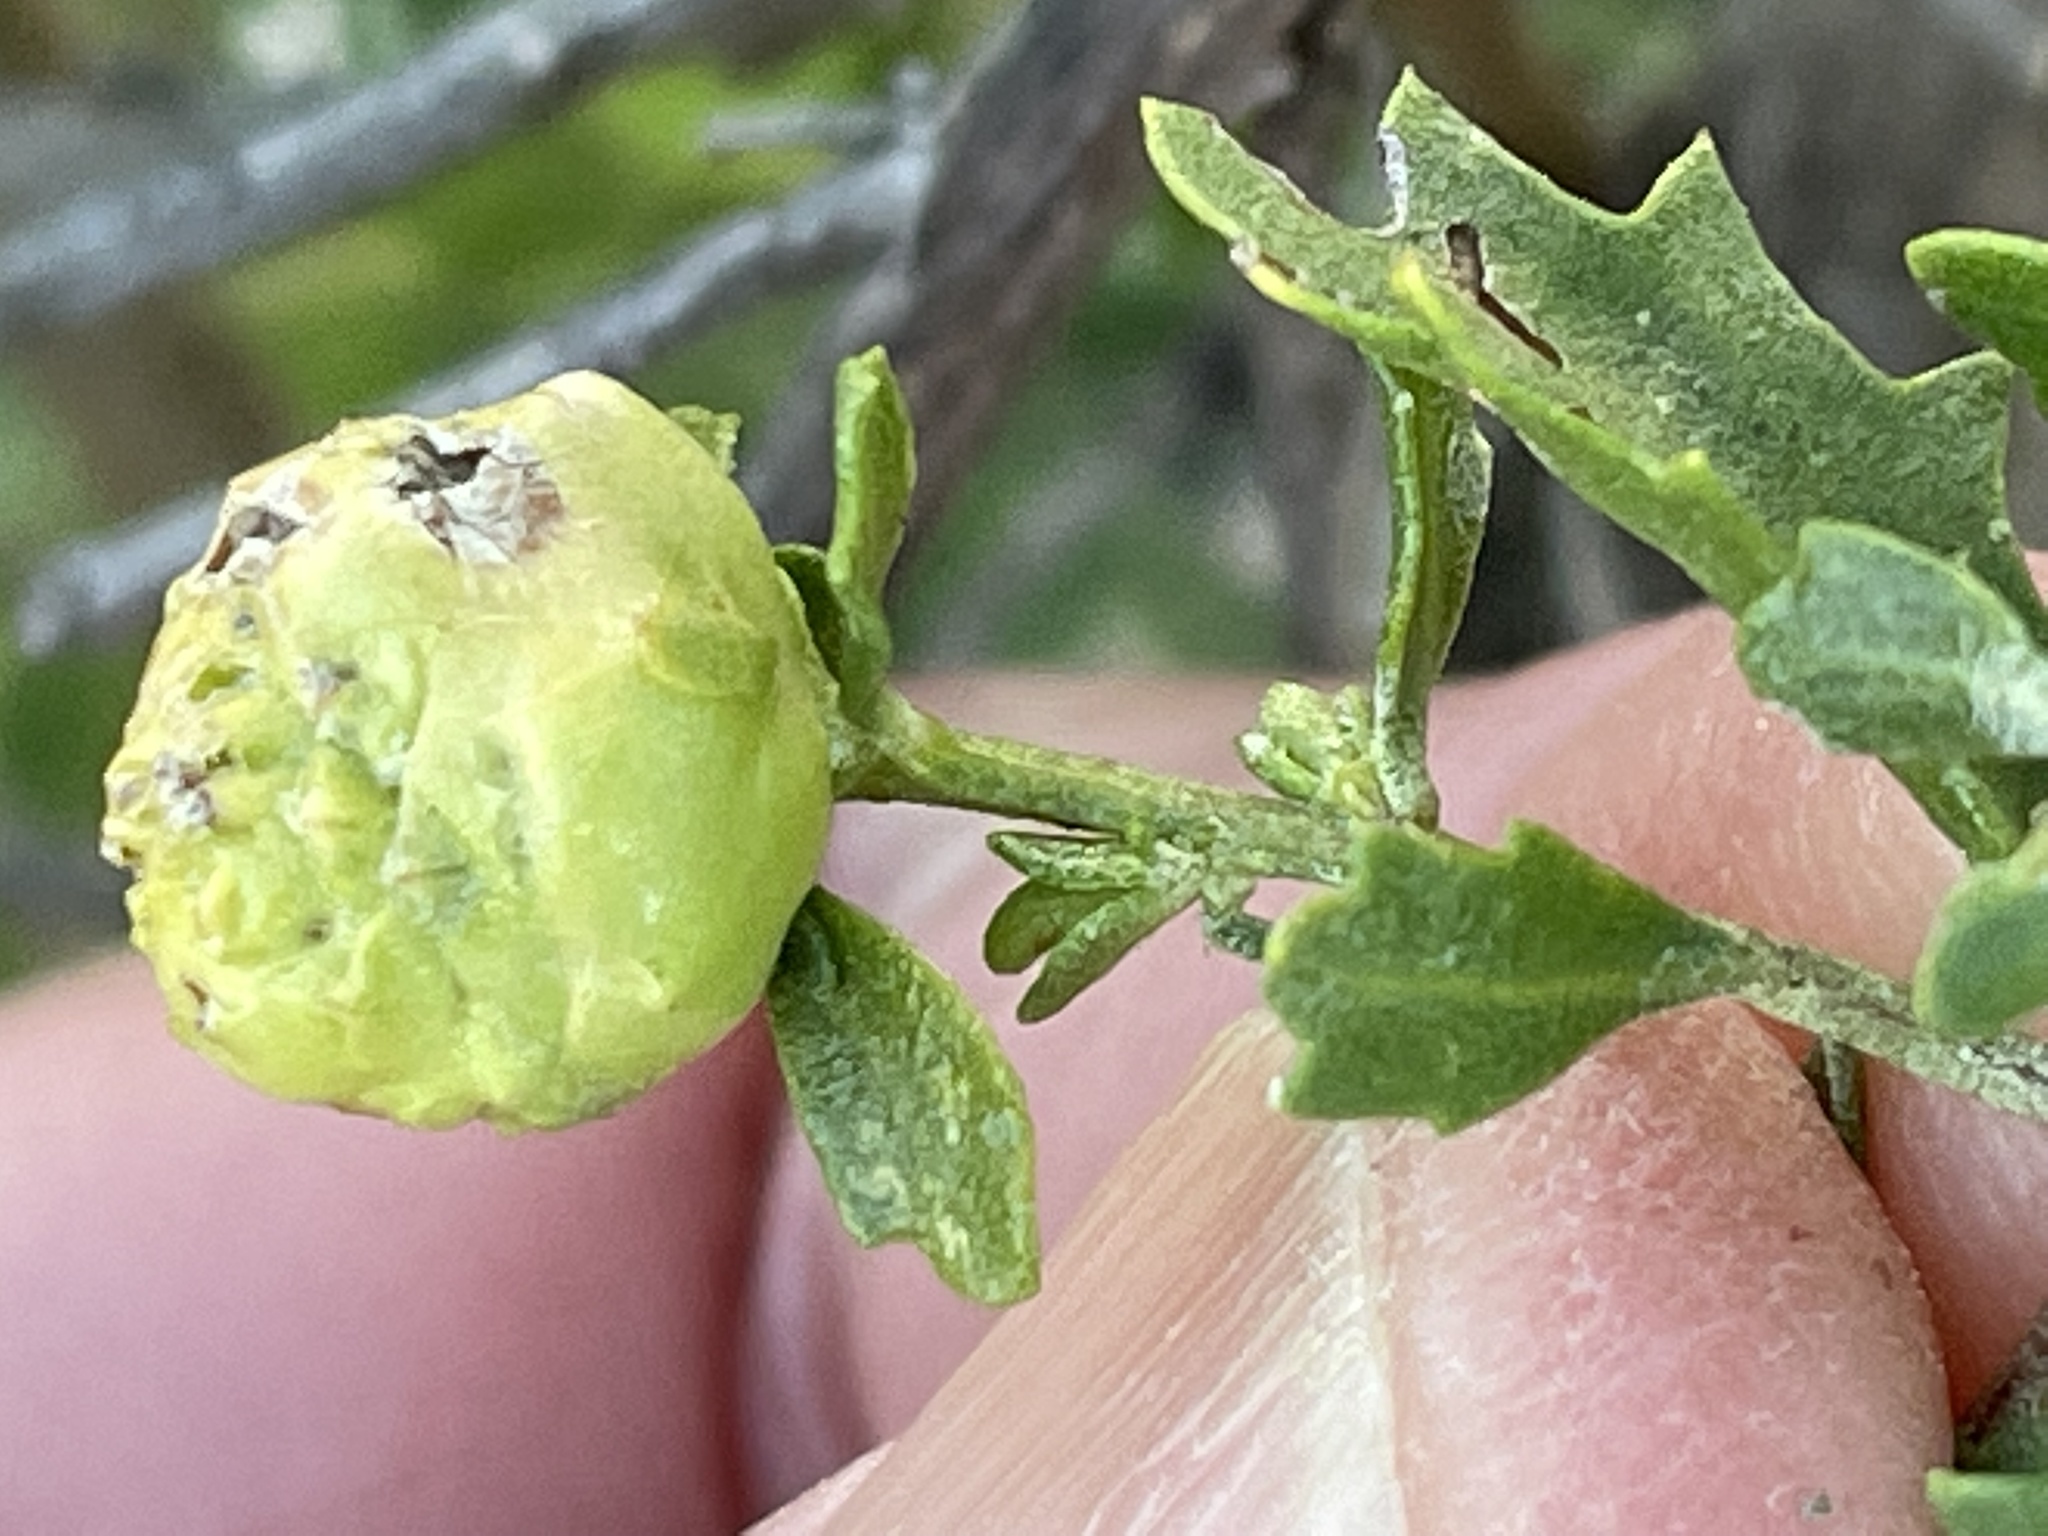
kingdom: Animalia
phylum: Arthropoda
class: Insecta
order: Diptera
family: Cecidomyiidae
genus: Rhopalomyia
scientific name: Rhopalomyia californica
